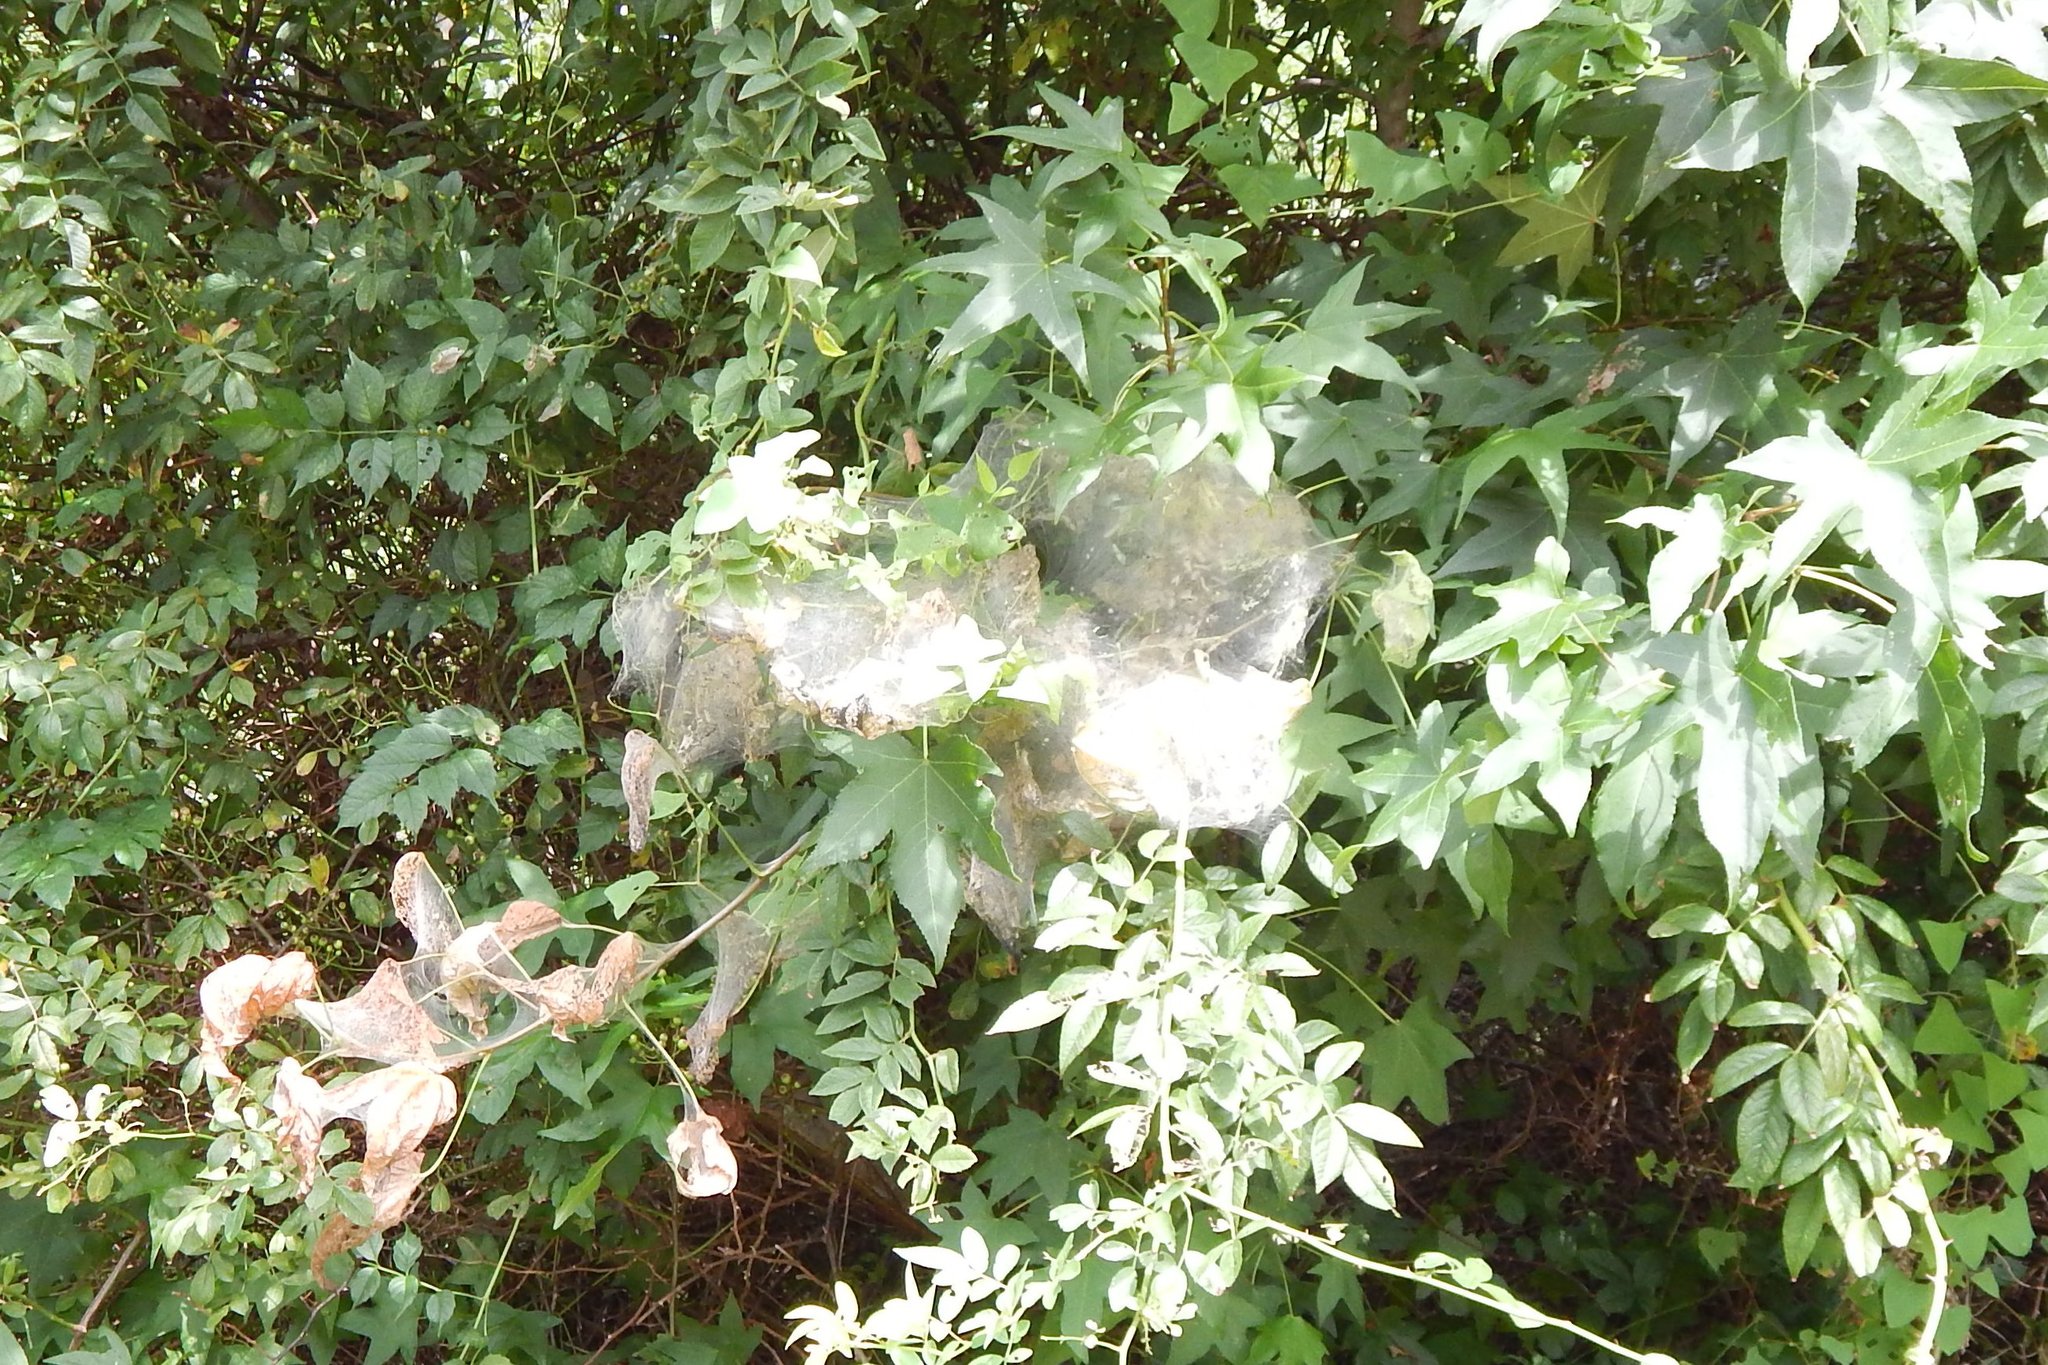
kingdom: Animalia
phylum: Arthropoda
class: Insecta
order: Lepidoptera
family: Erebidae
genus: Hyphantria
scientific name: Hyphantria cunea
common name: American white moth
